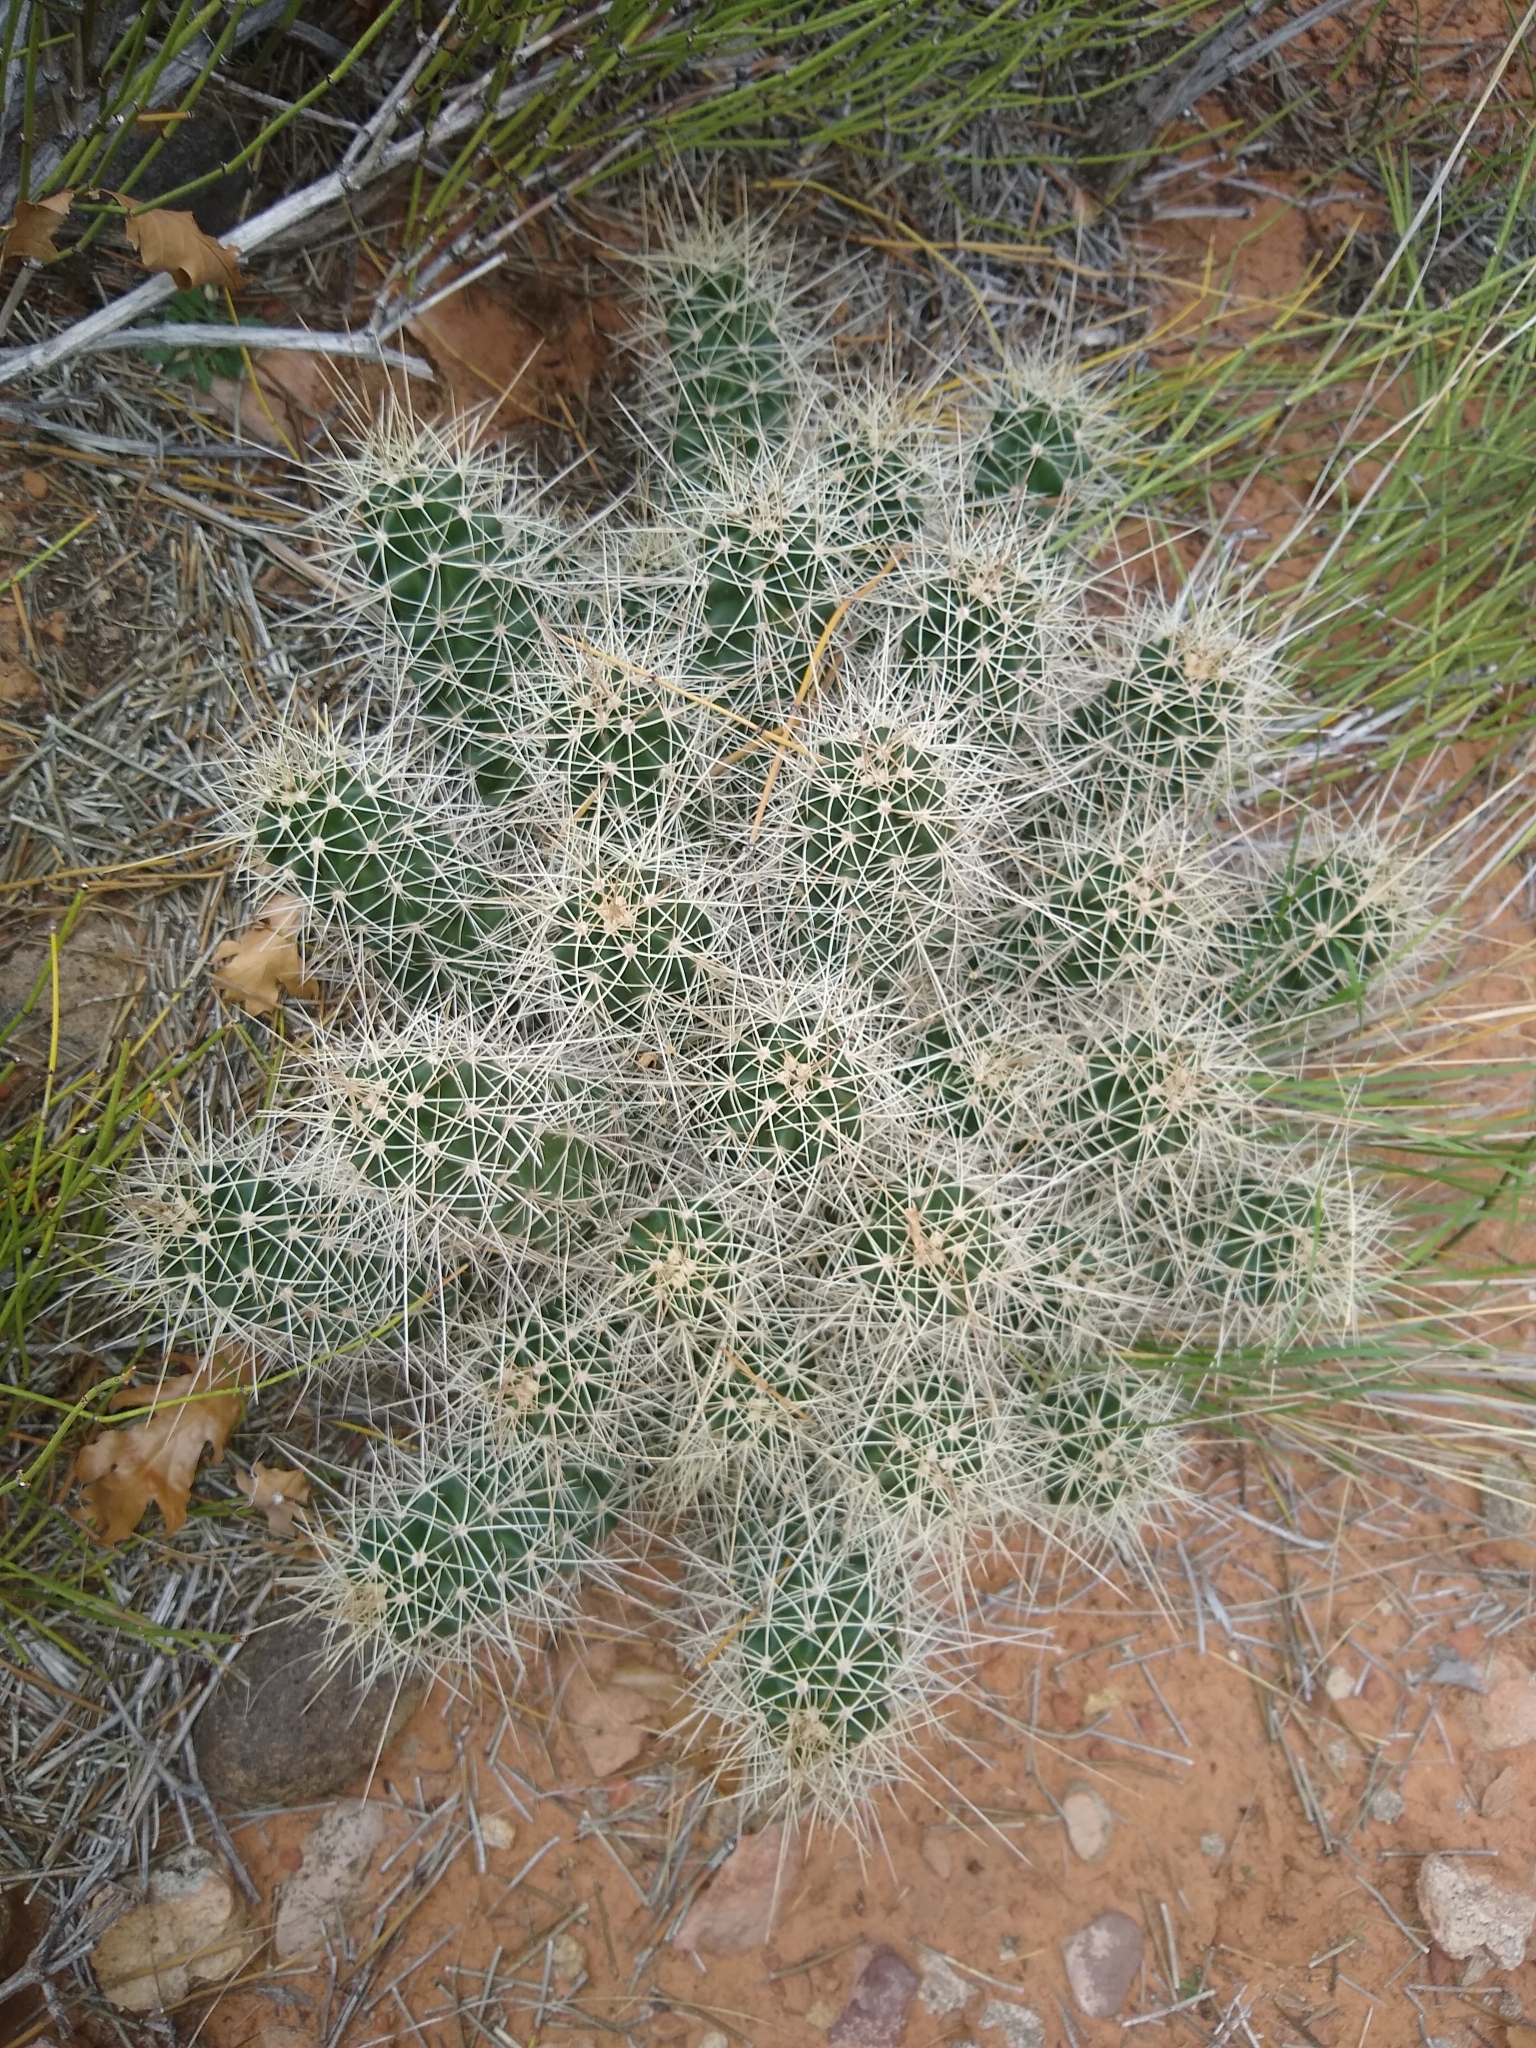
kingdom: Plantae
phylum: Tracheophyta
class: Magnoliopsida
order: Caryophyllales
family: Cactaceae
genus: Echinocereus
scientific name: Echinocereus triglochidiatus
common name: Claretcup hedgehog
